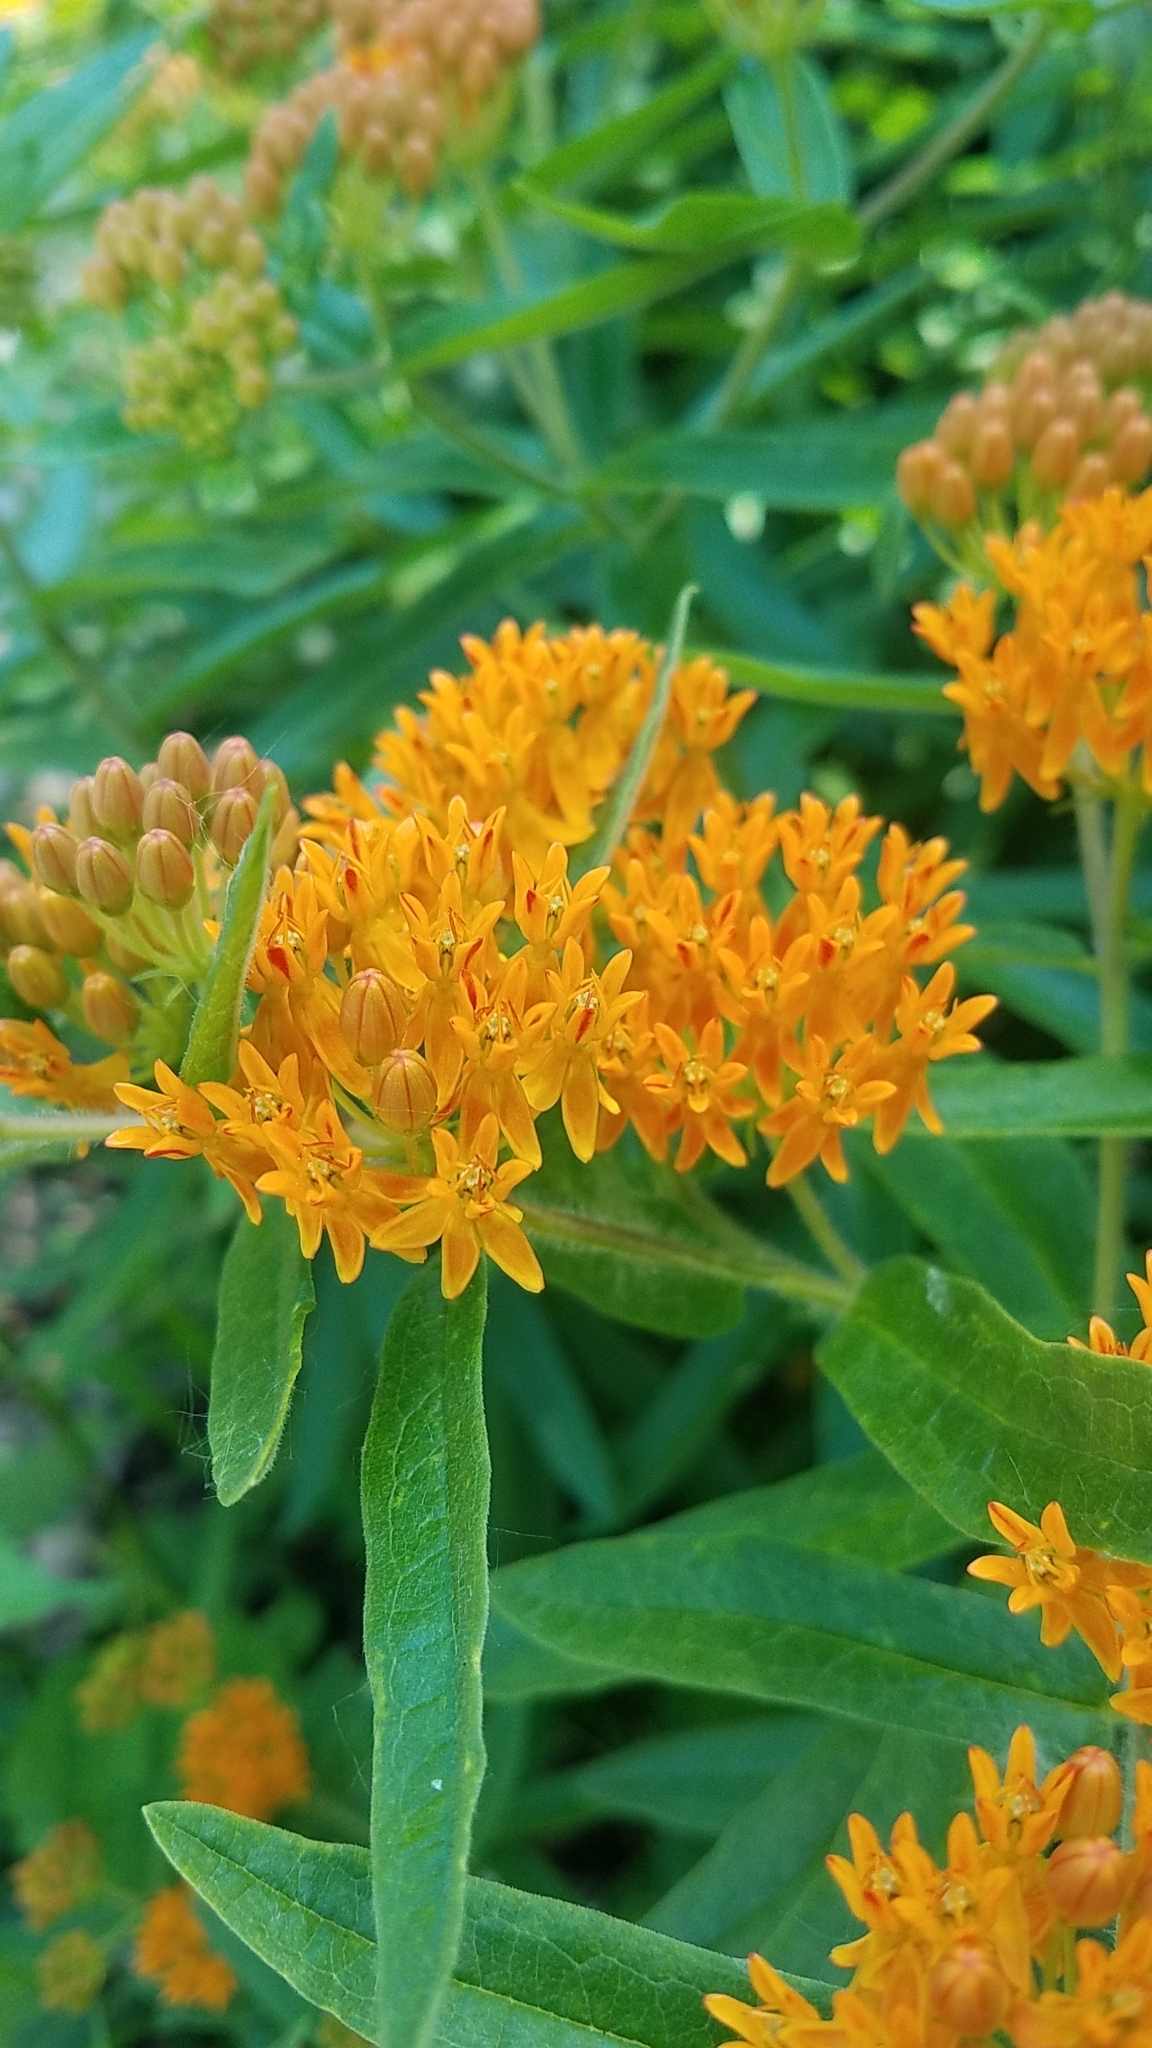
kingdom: Plantae
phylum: Tracheophyta
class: Magnoliopsida
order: Gentianales
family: Apocynaceae
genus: Asclepias
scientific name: Asclepias tuberosa
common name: Butterfly milkweed
